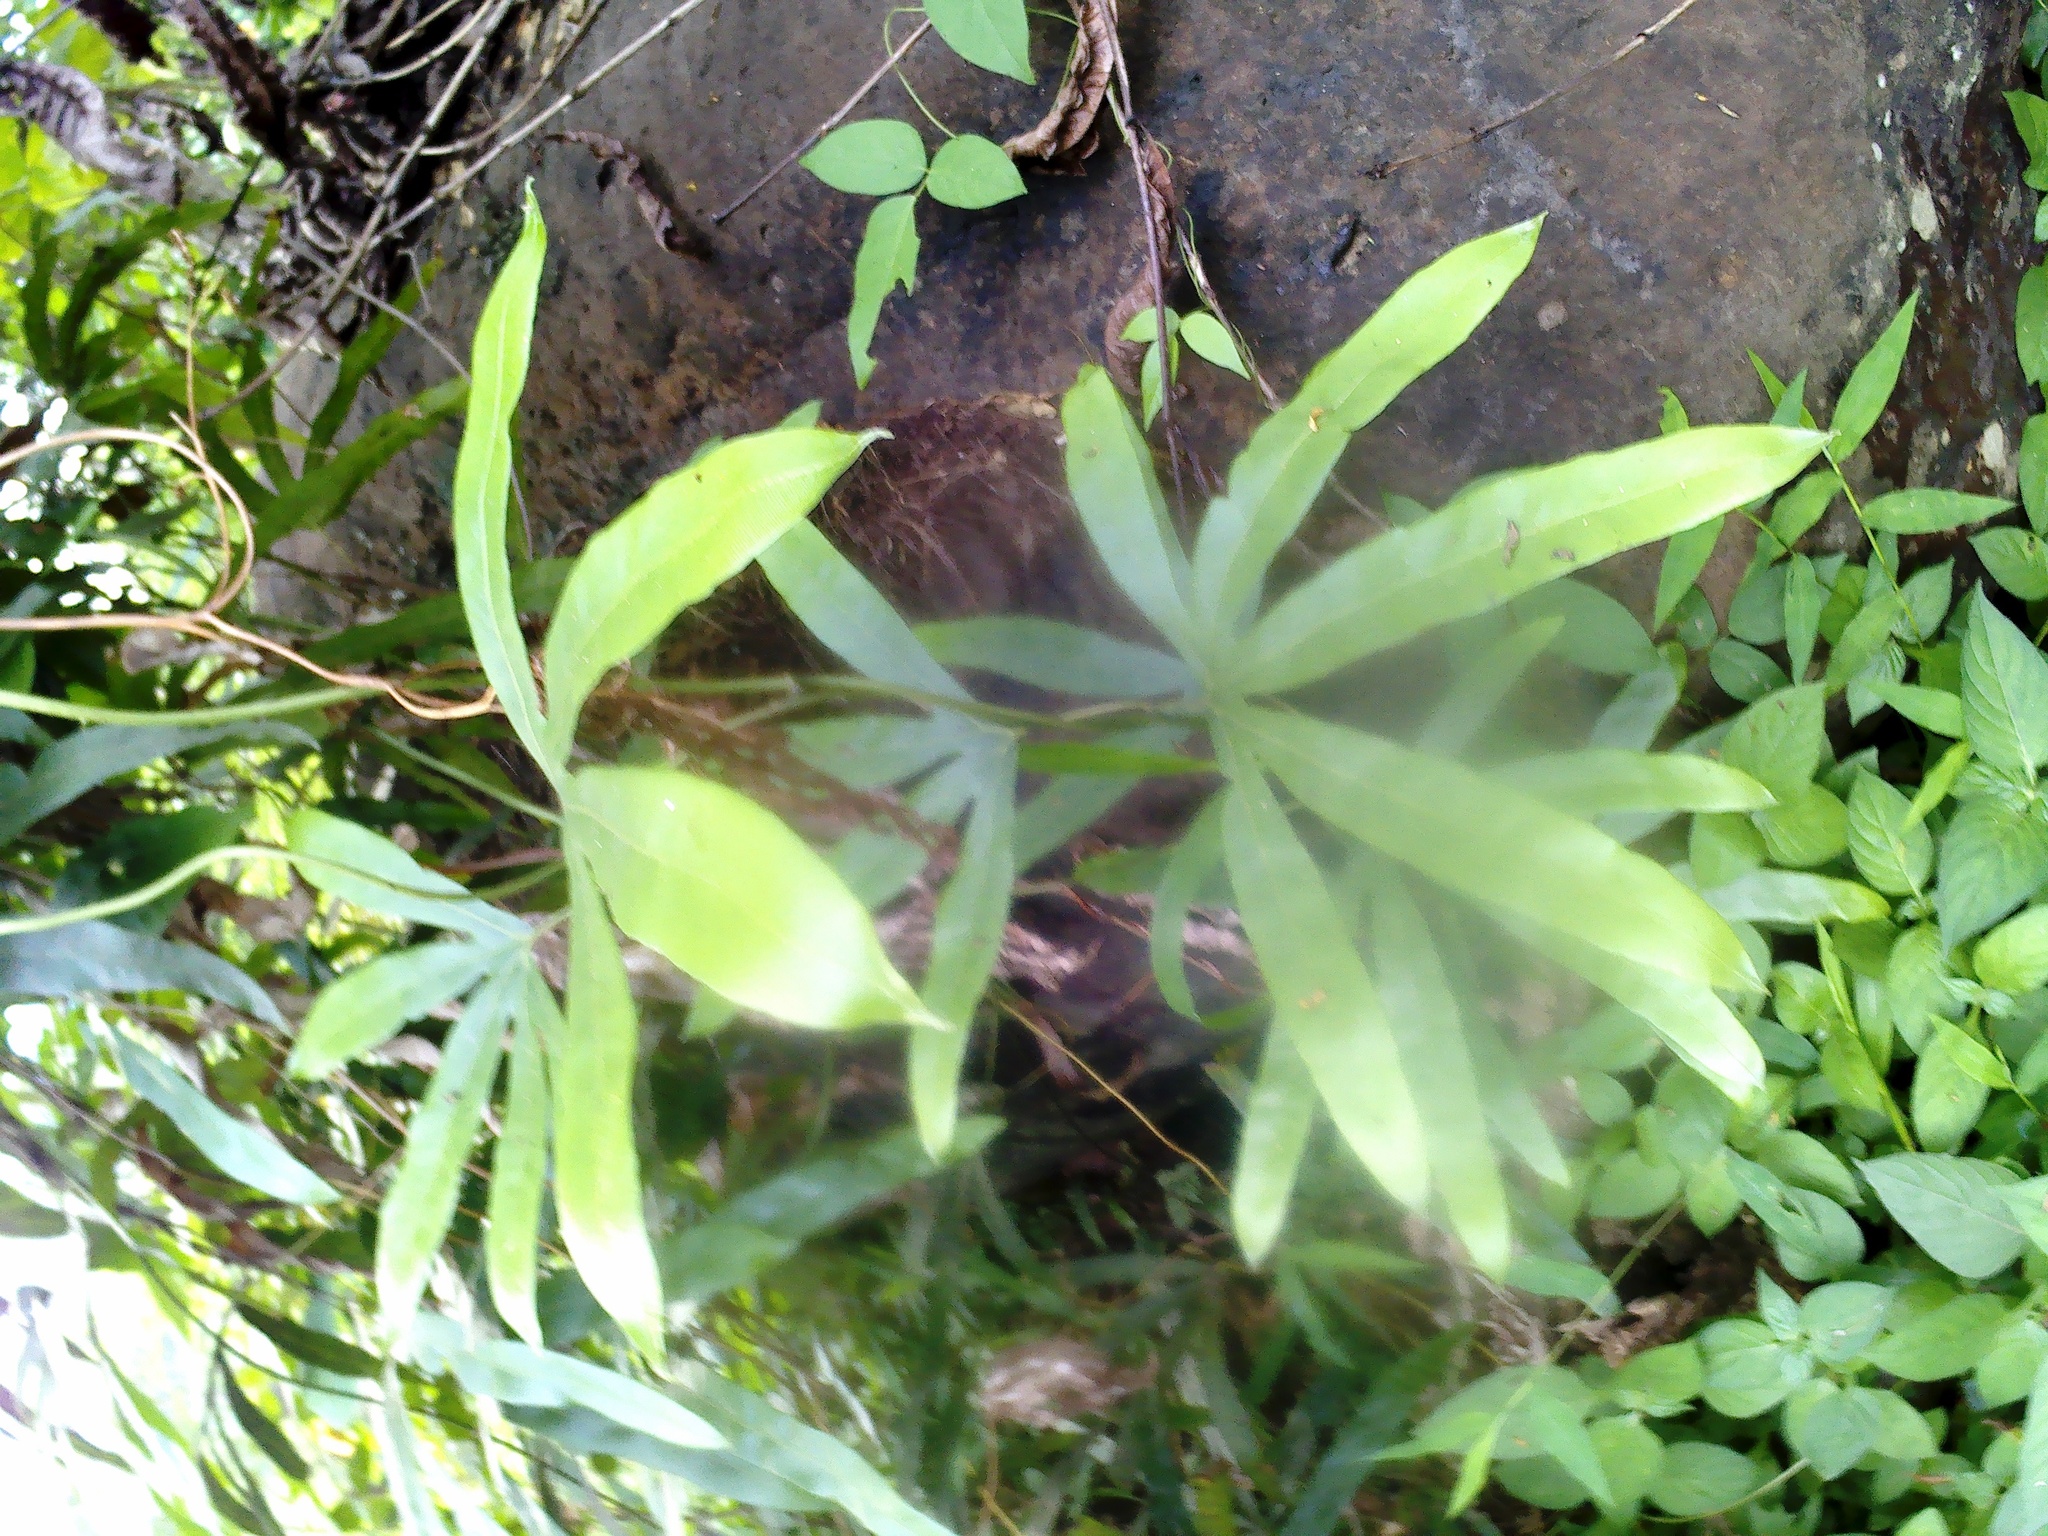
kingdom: Plantae
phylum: Tracheophyta
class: Polypodiopsida
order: Schizaeales
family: Lygodiaceae
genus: Lygodium
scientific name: Lygodium circinnatum
